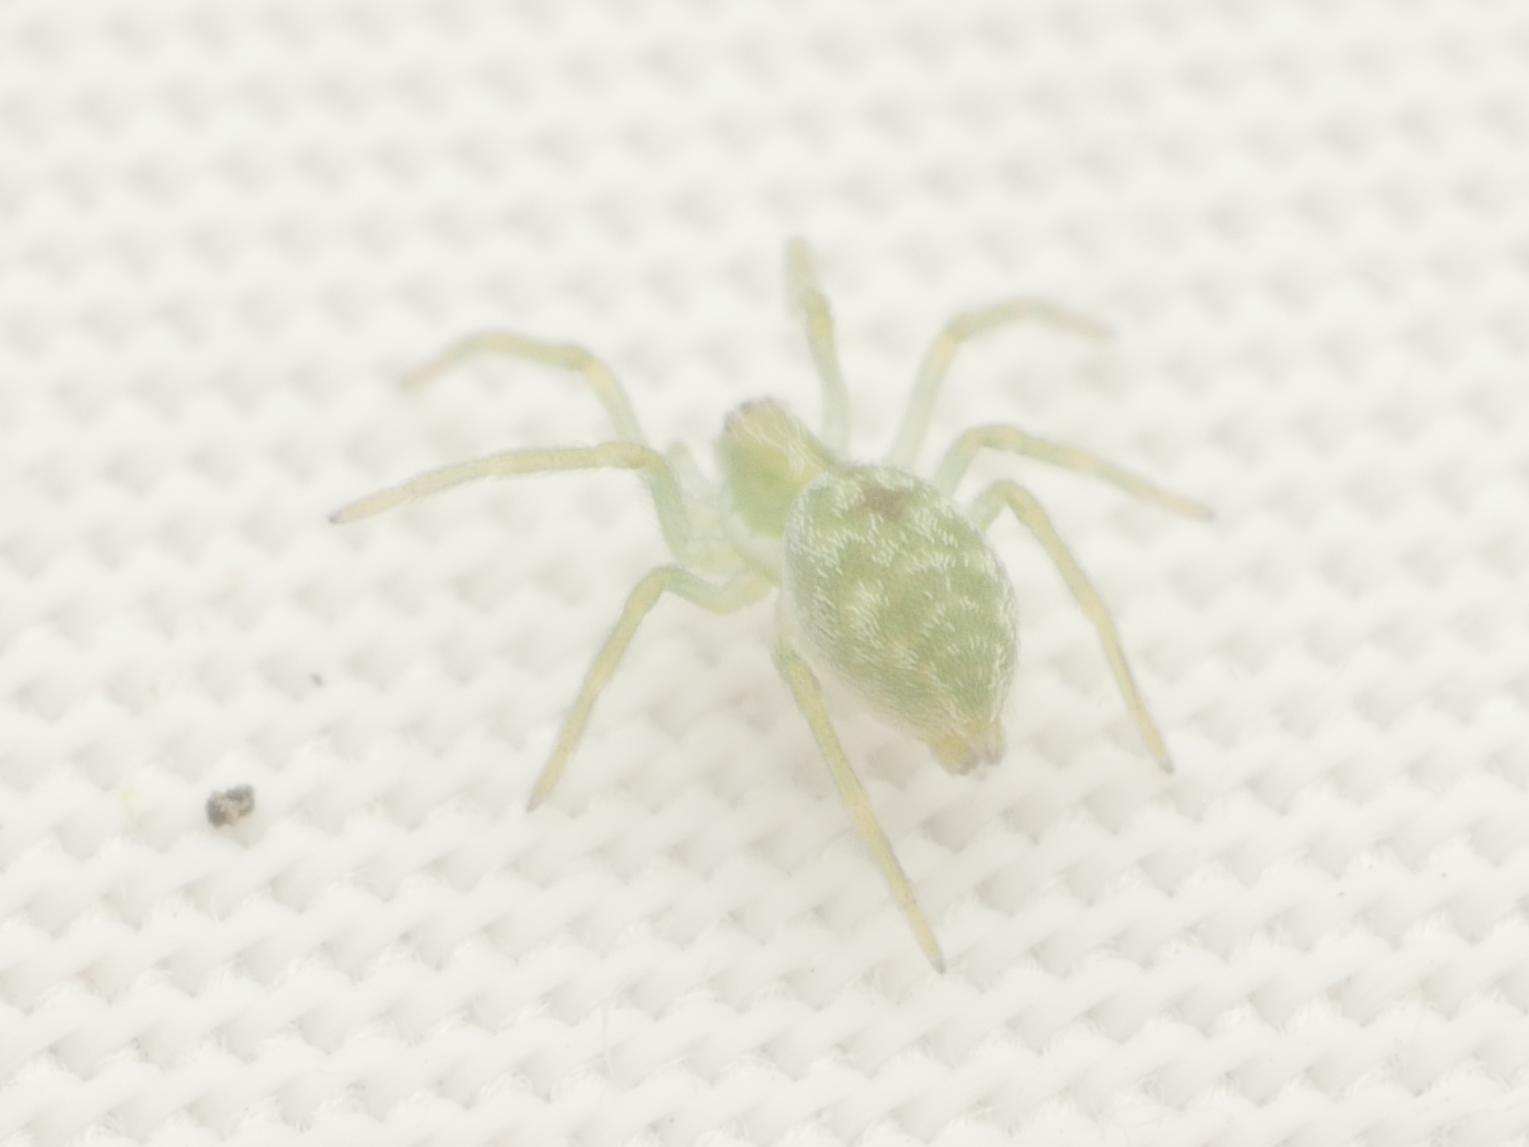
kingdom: Animalia
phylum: Arthropoda
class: Arachnida
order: Araneae
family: Dictynidae
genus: Nigma
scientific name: Nigma walckenaeri
